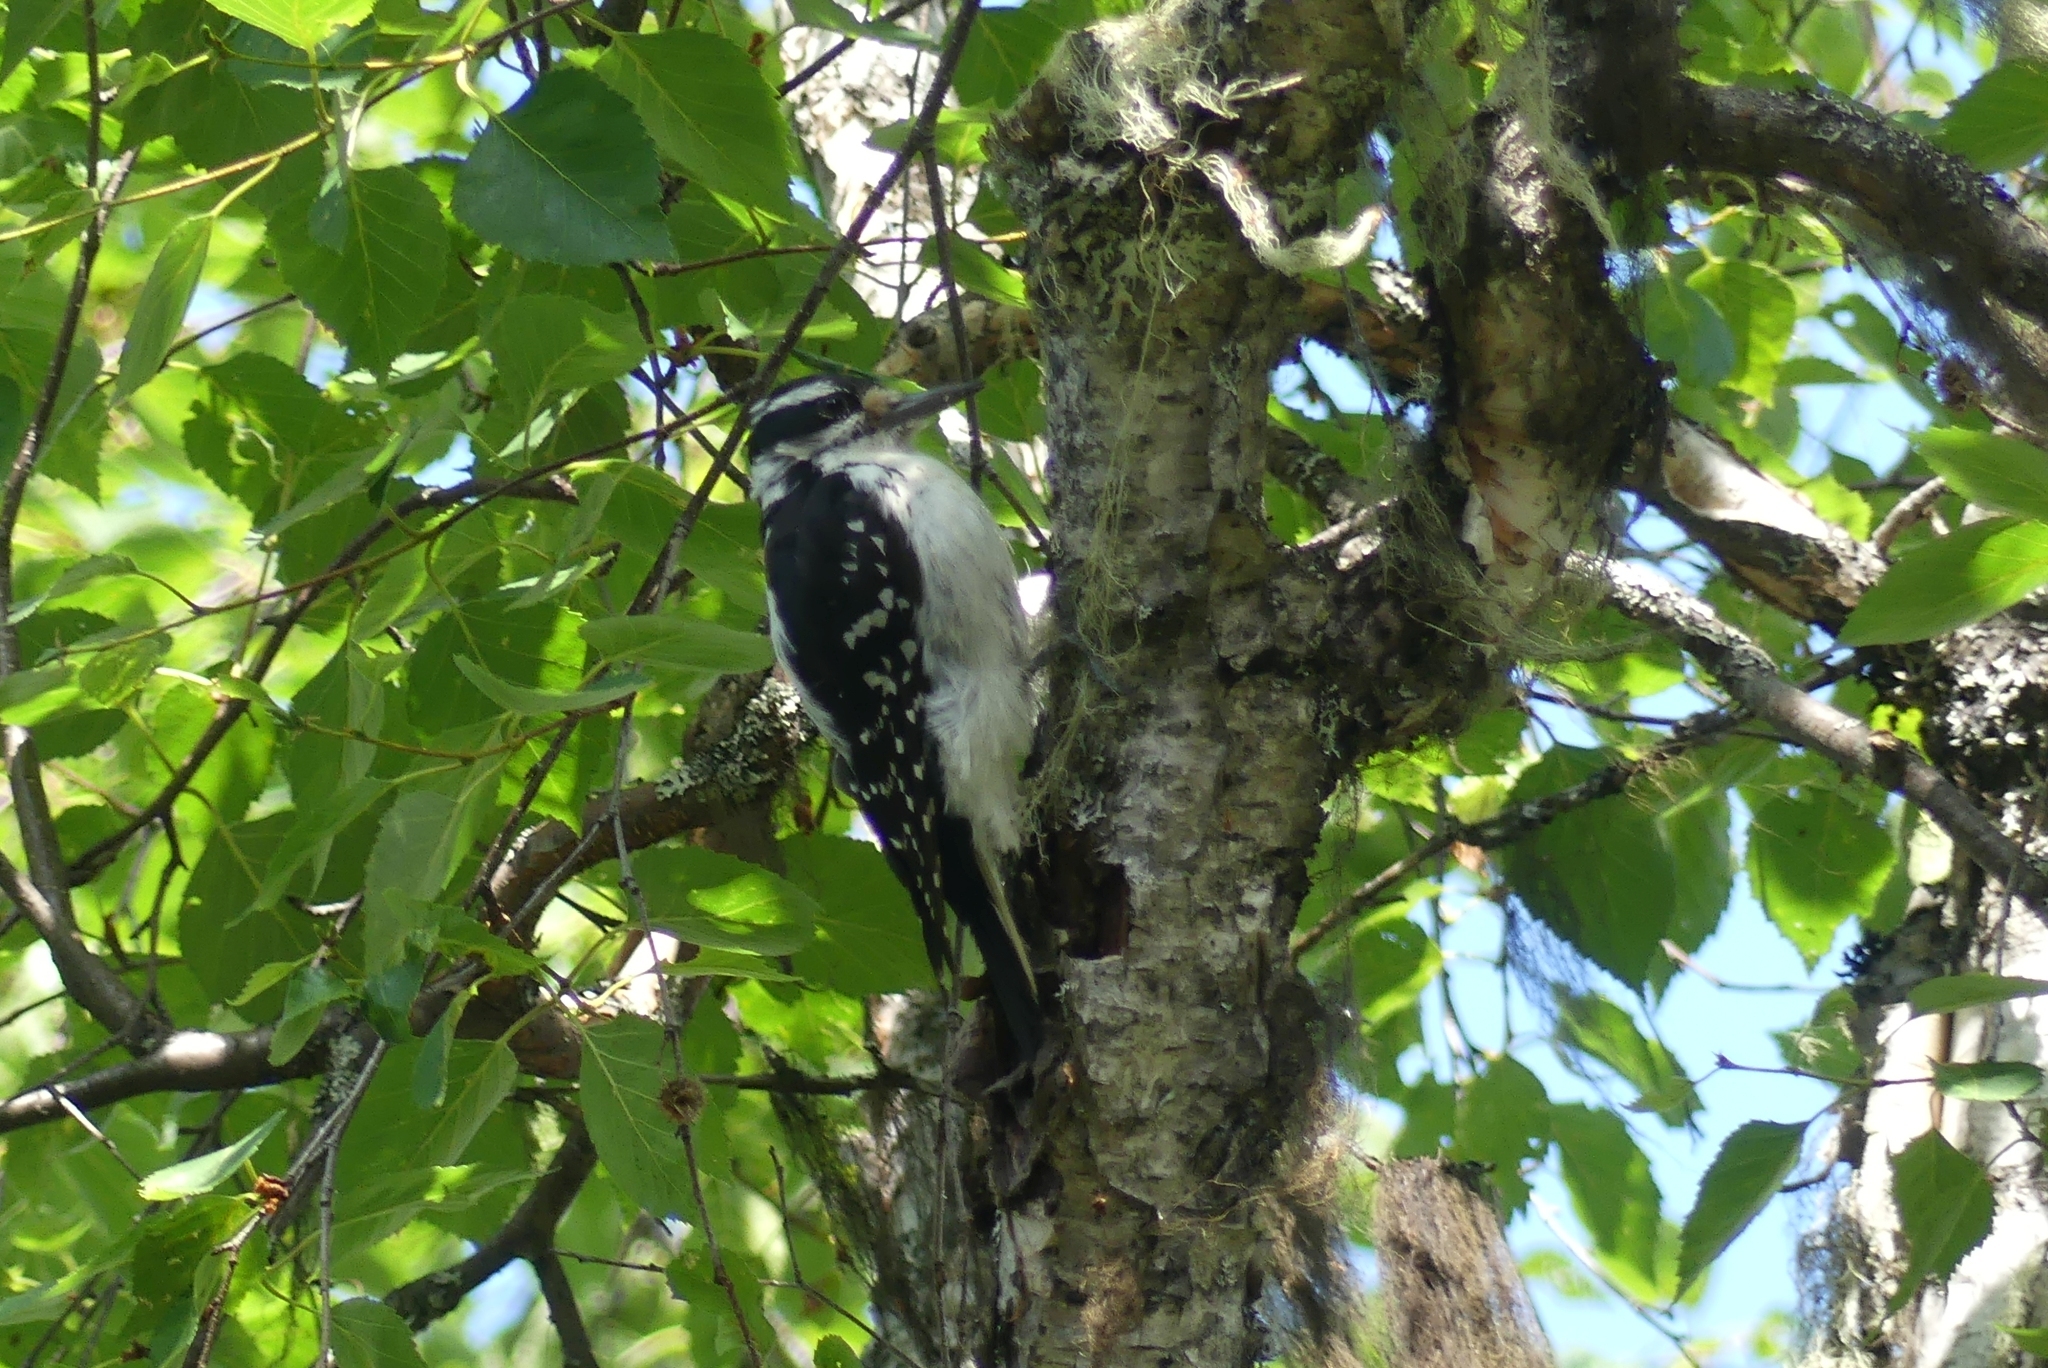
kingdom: Animalia
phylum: Chordata
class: Aves
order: Piciformes
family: Picidae
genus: Leuconotopicus
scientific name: Leuconotopicus villosus
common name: Hairy woodpecker
